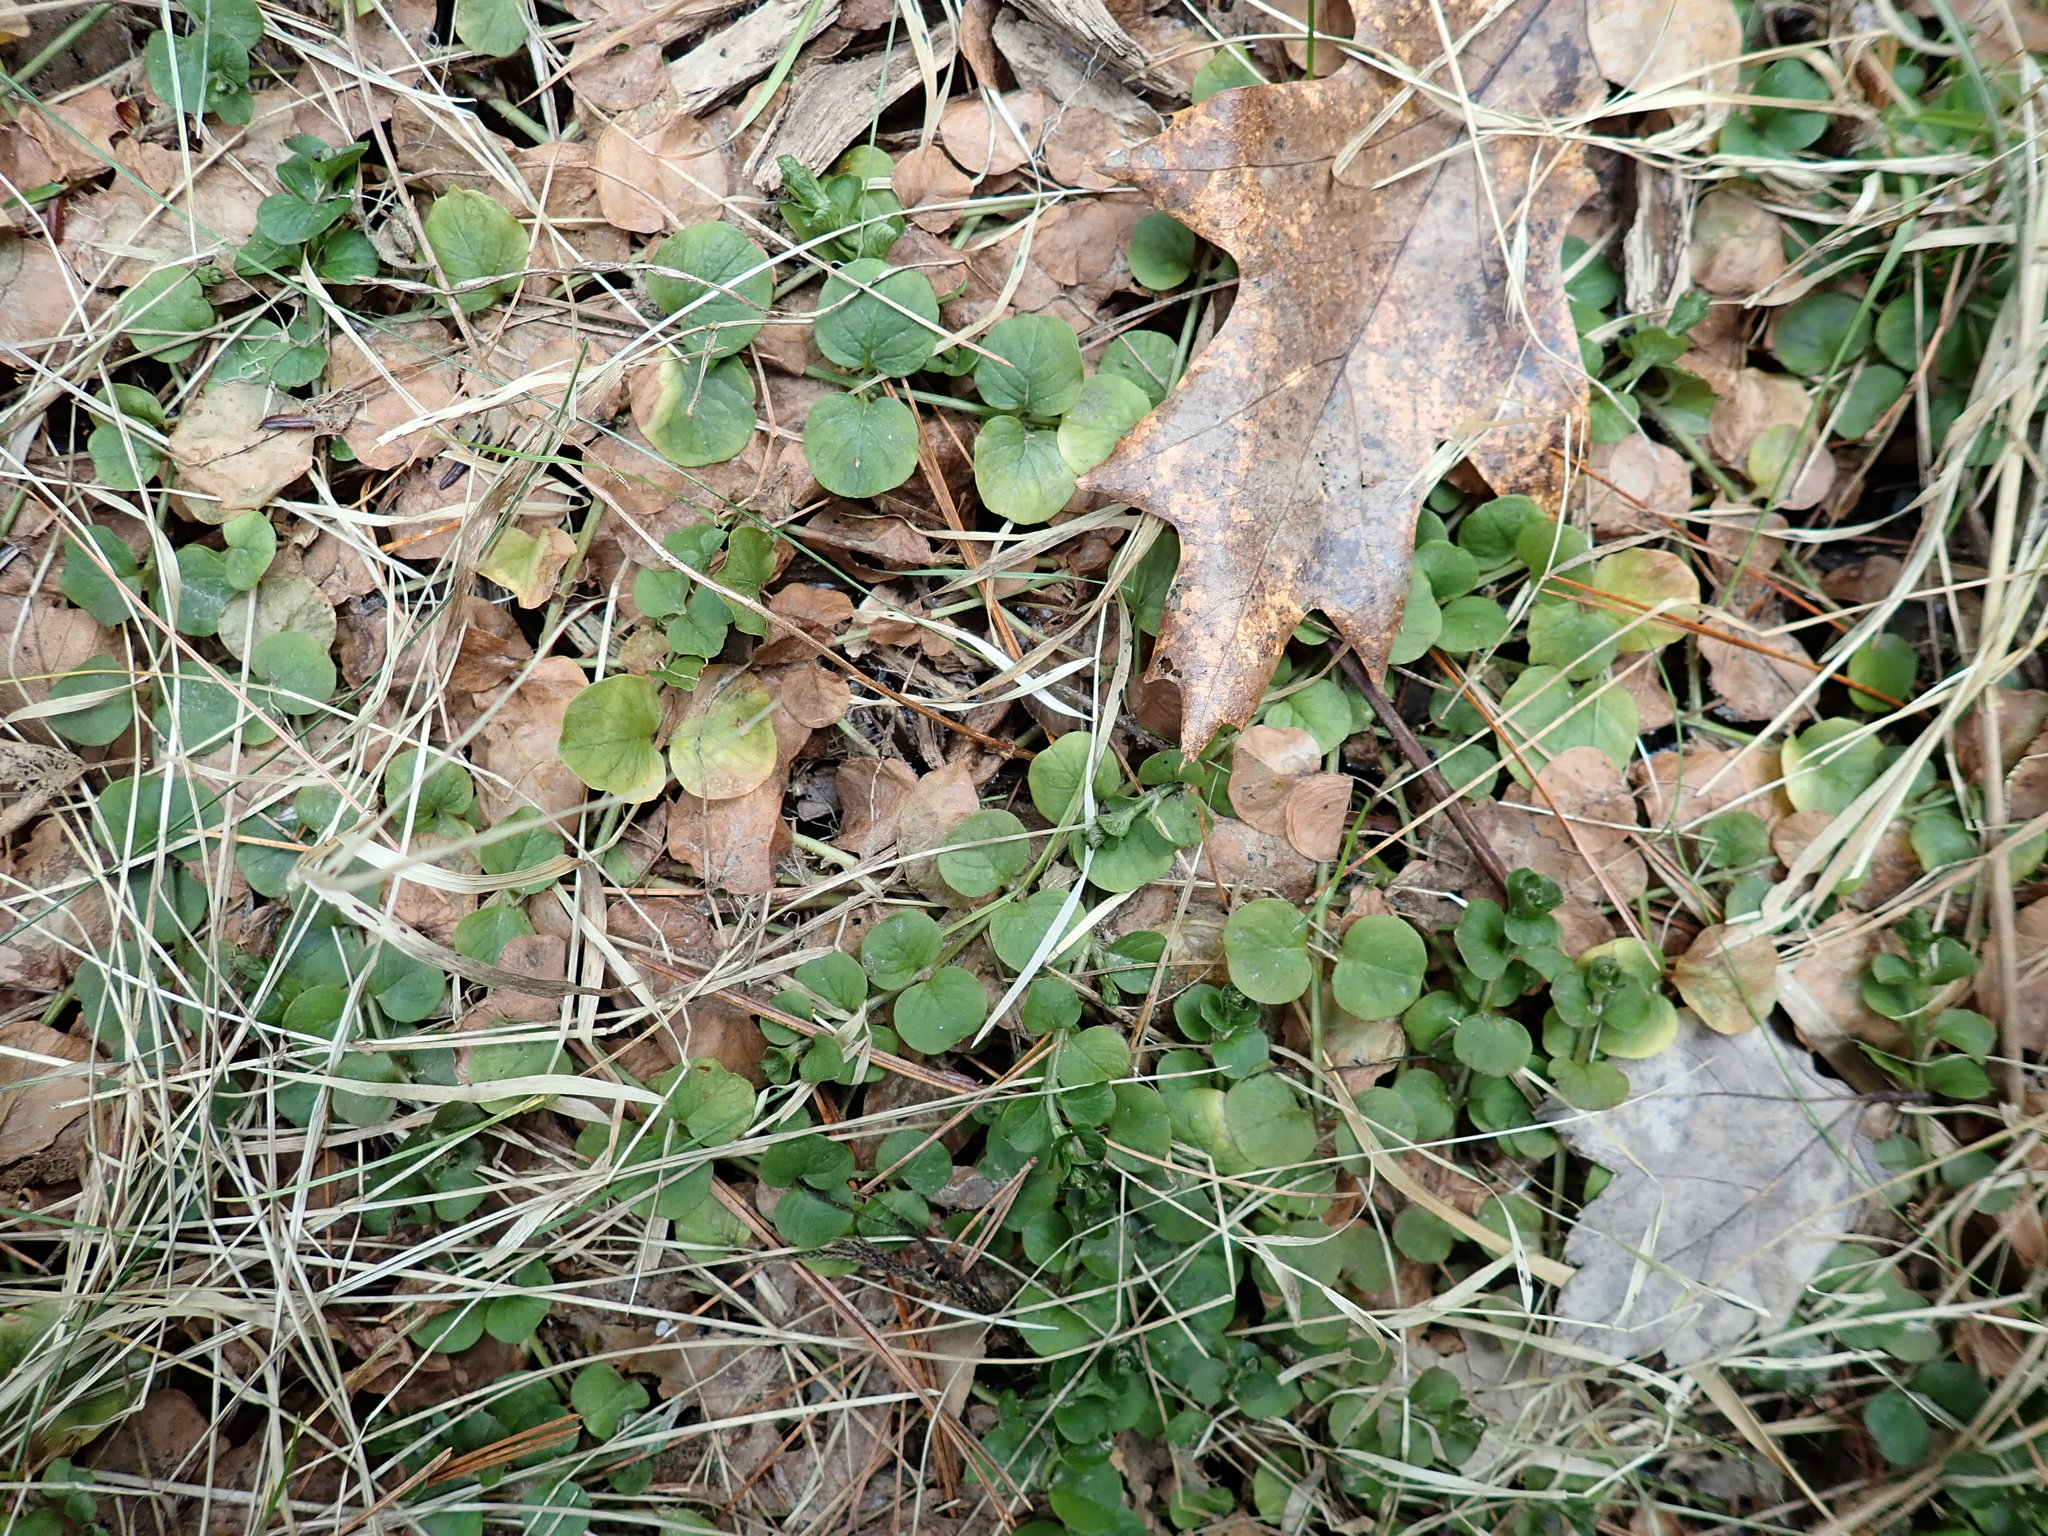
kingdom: Plantae
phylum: Tracheophyta
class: Magnoliopsida
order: Ericales
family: Primulaceae
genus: Lysimachia
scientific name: Lysimachia nummularia
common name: Moneywort
